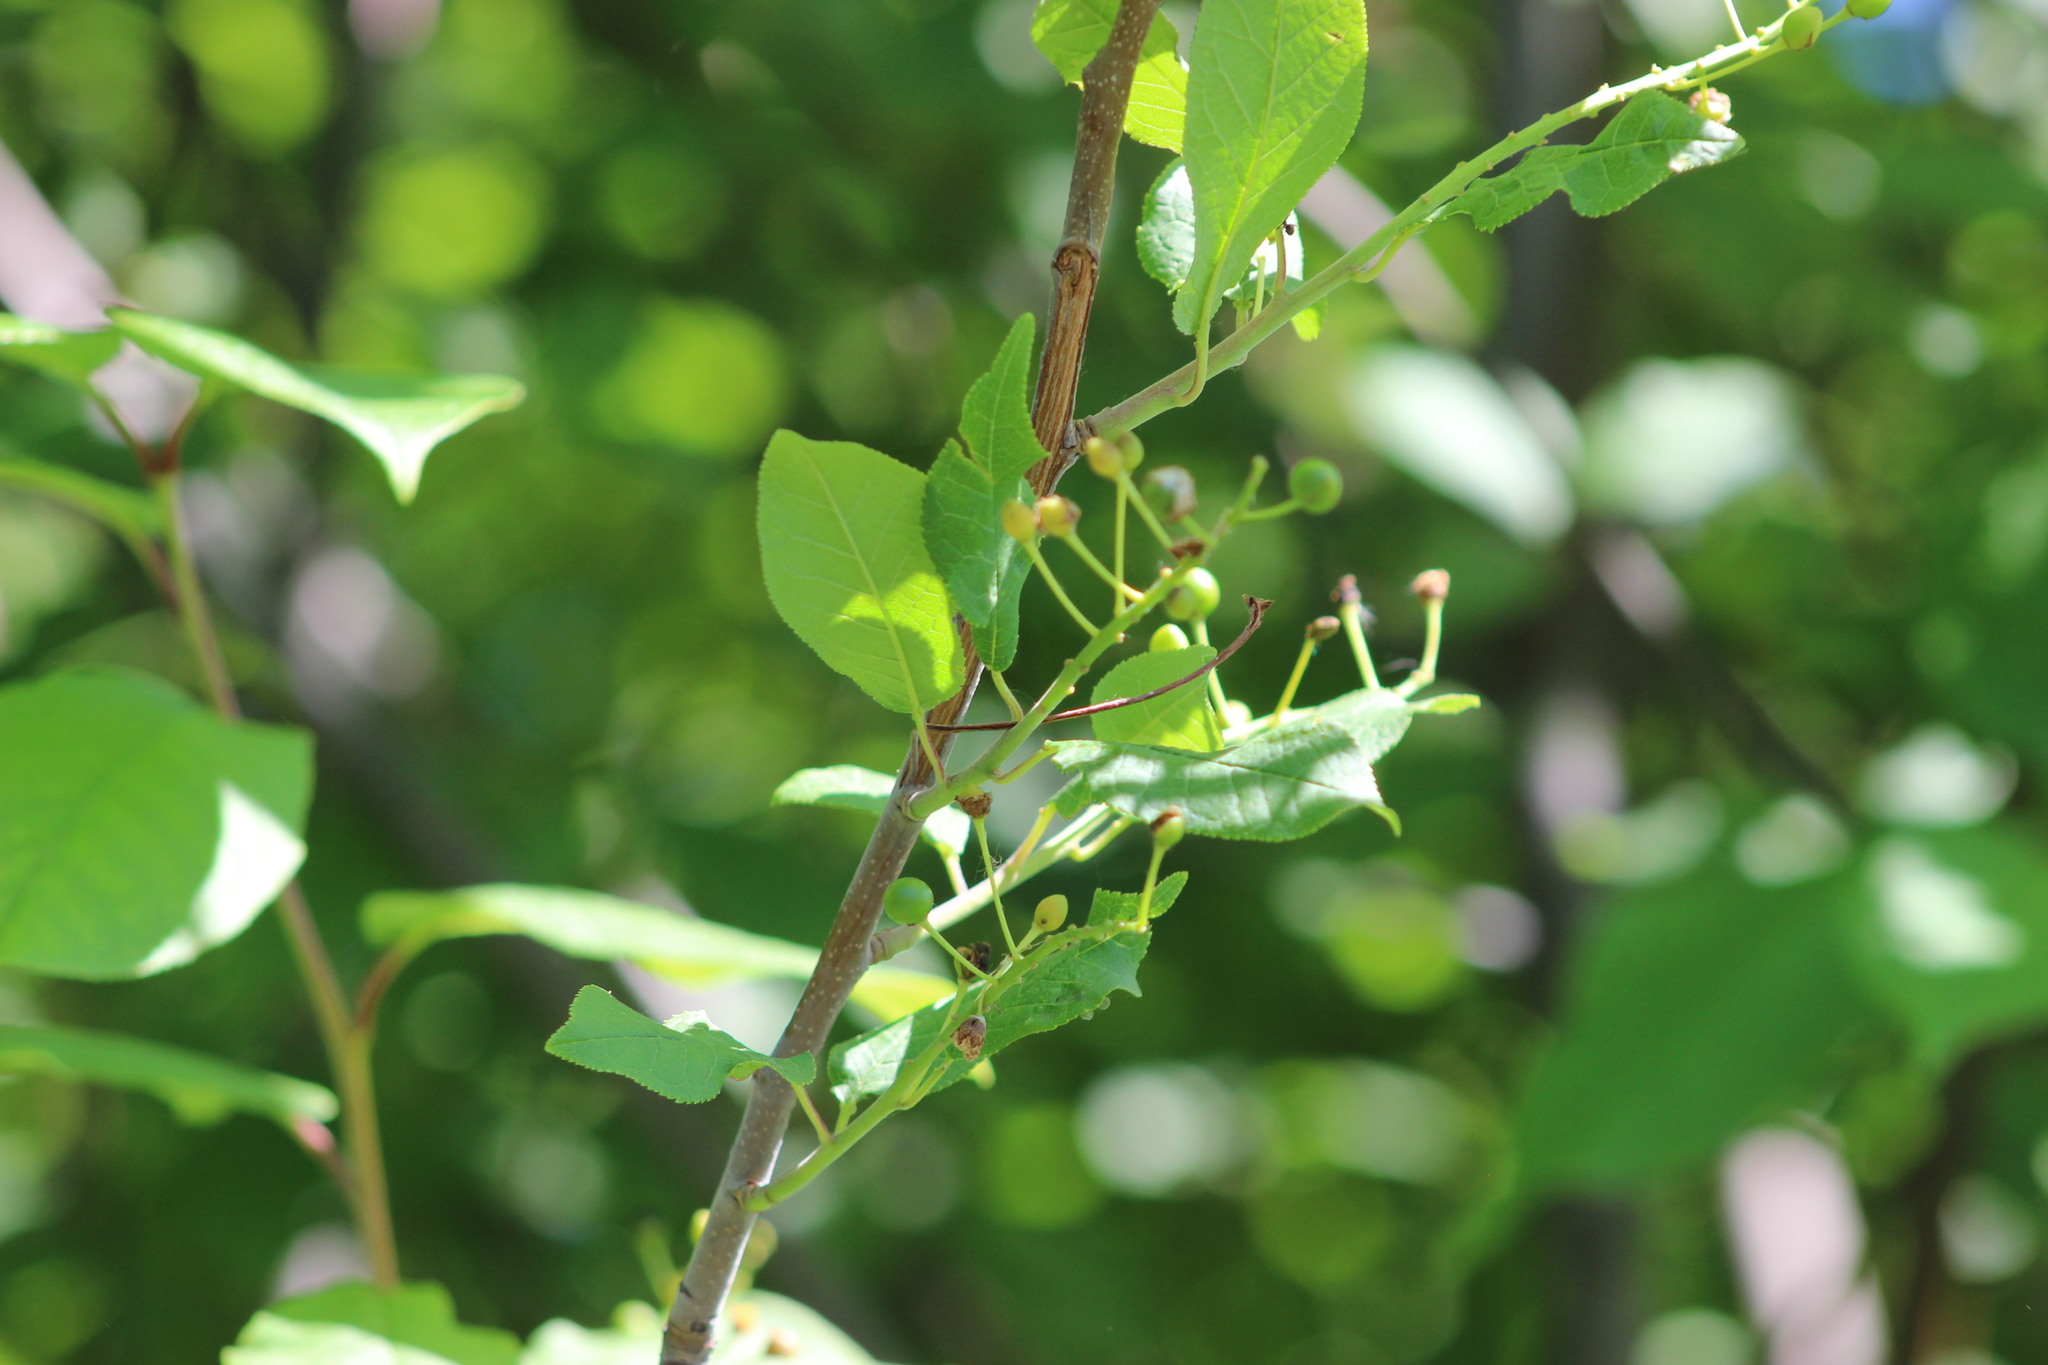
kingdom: Plantae
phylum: Tracheophyta
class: Magnoliopsida
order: Rosales
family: Rosaceae
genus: Prunus
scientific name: Prunus padus
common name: Bird cherry
